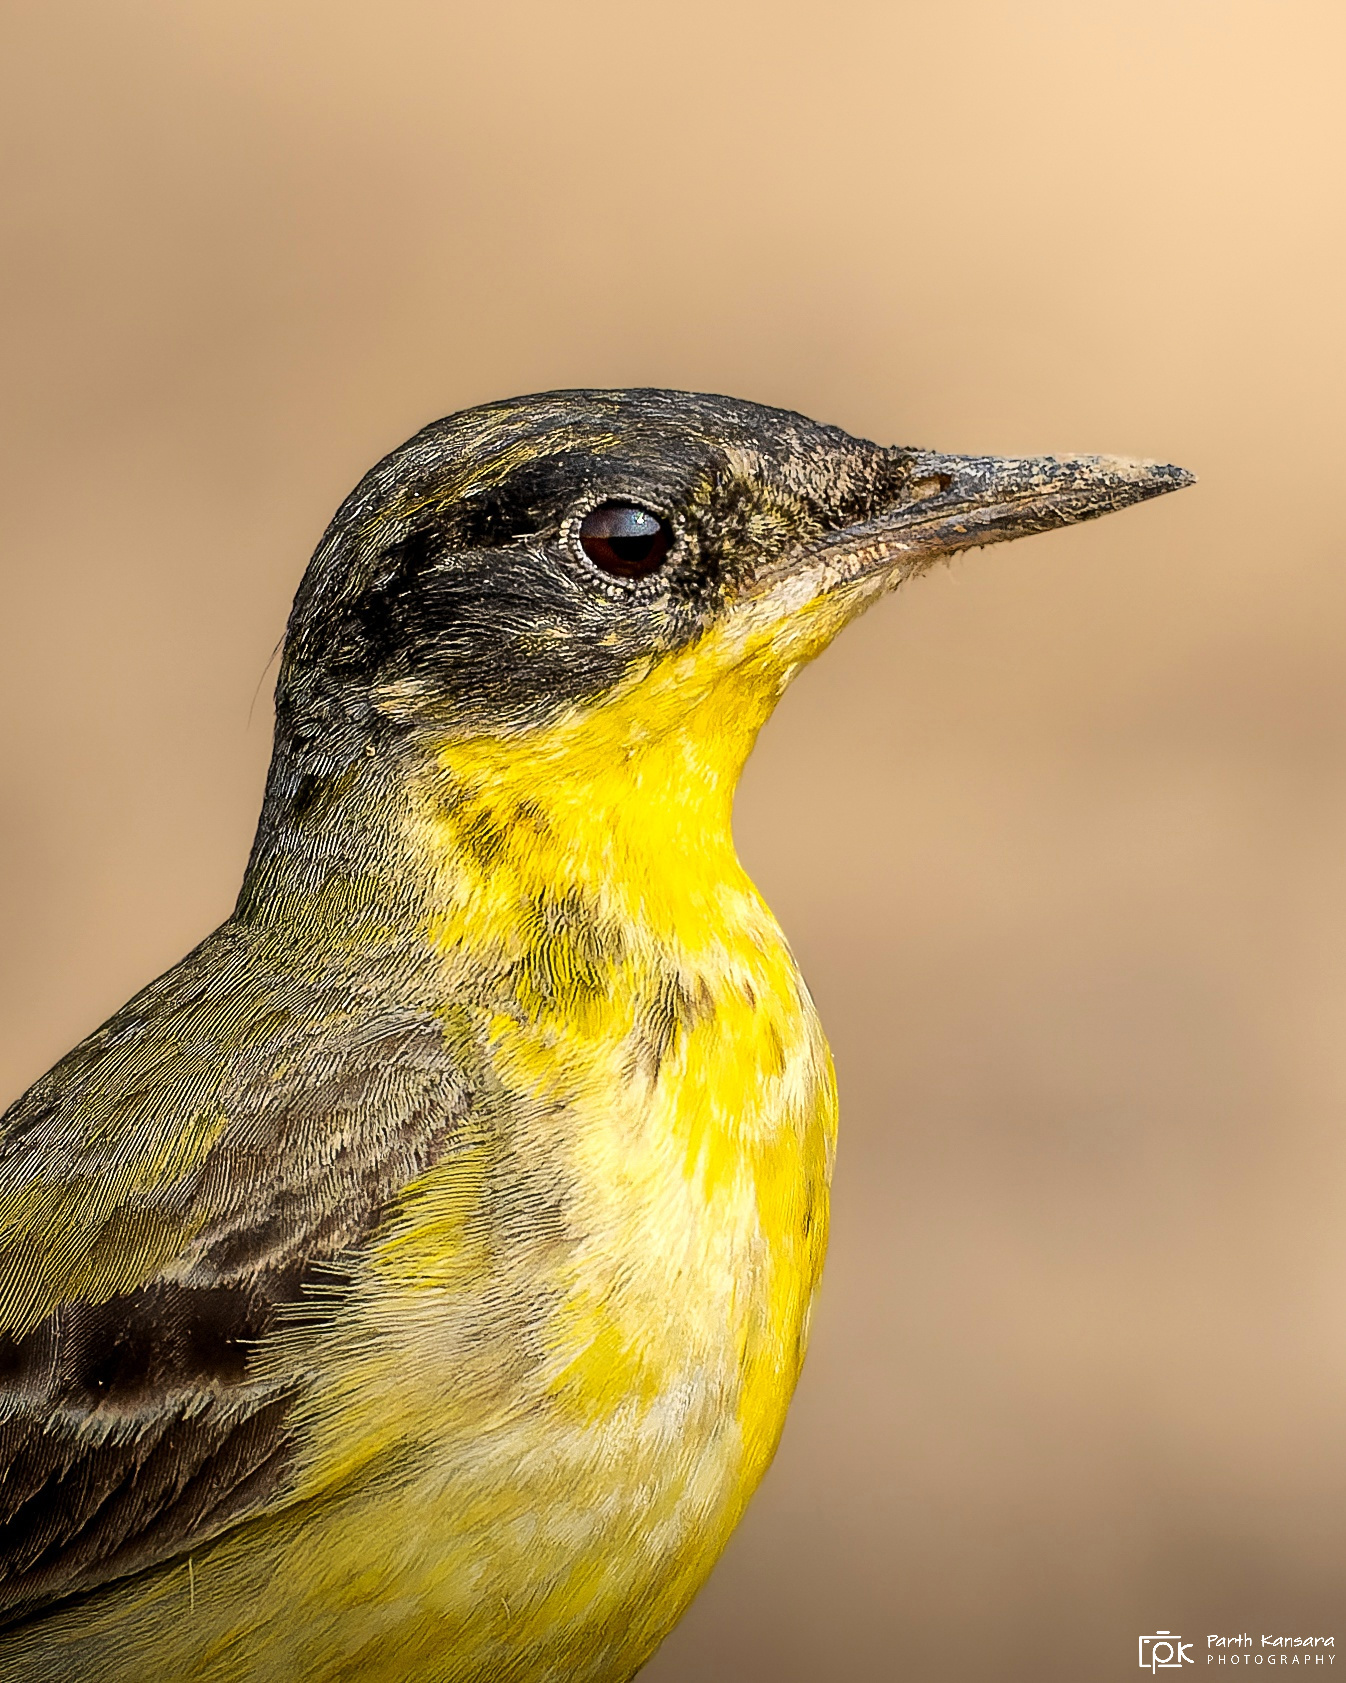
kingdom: Animalia
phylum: Chordata
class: Aves
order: Passeriformes
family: Motacillidae
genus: Motacilla
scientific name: Motacilla flava
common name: Western yellow wagtail
